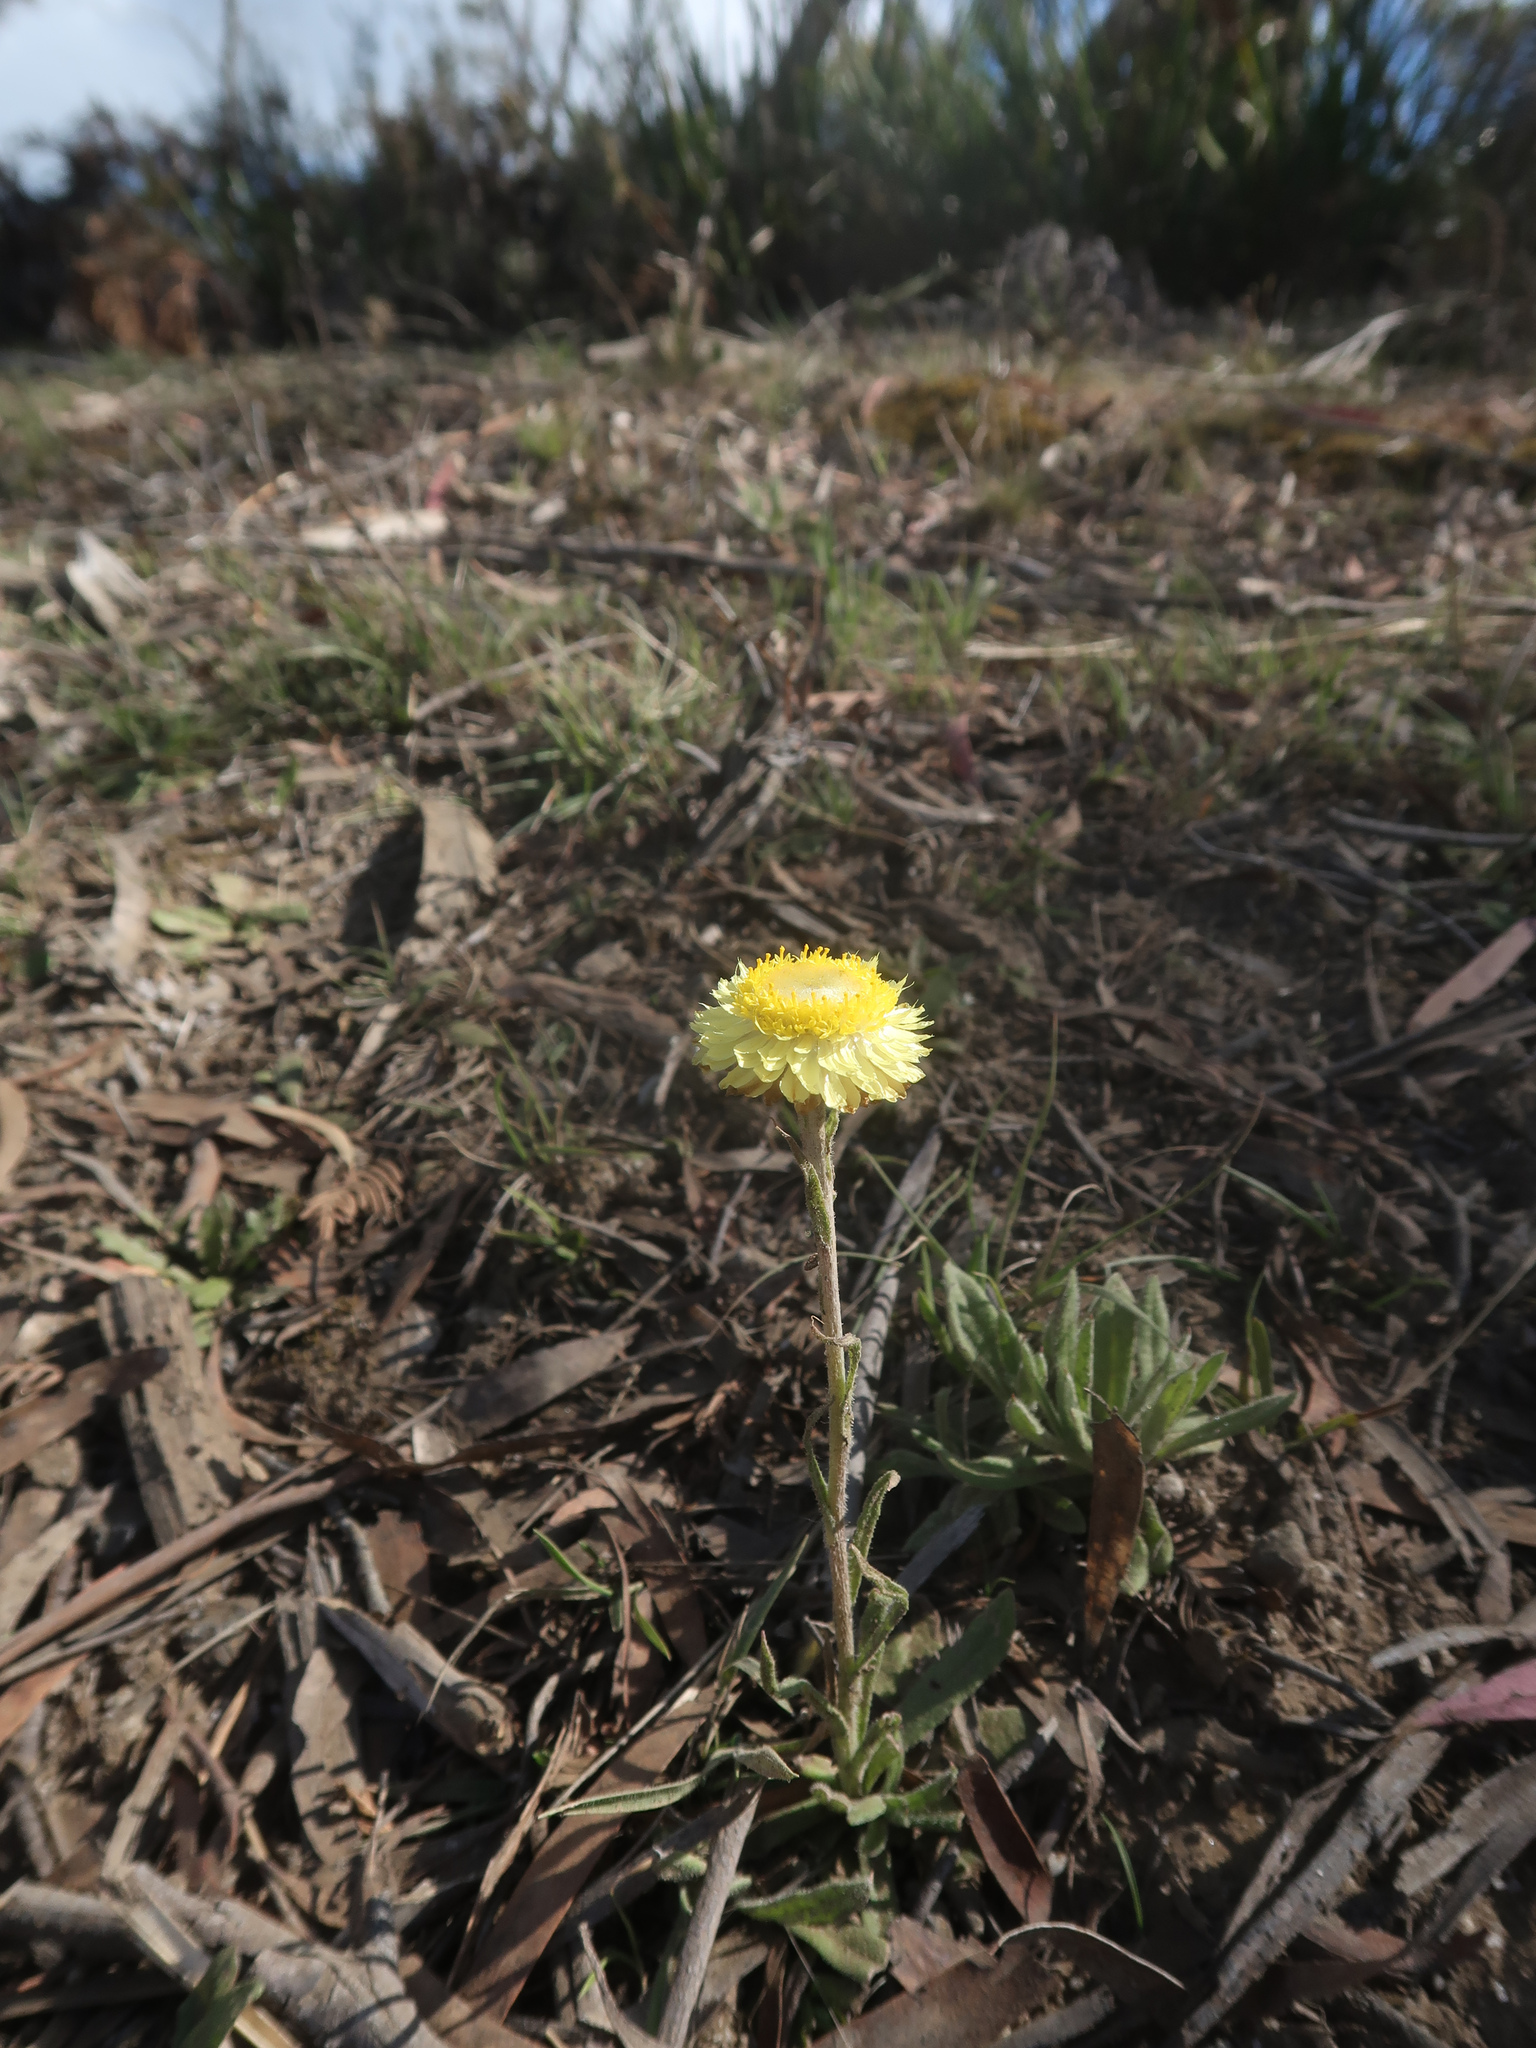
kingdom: Plantae
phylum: Tracheophyta
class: Magnoliopsida
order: Asterales
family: Asteraceae
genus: Coronidium
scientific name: Coronidium scorpioides
